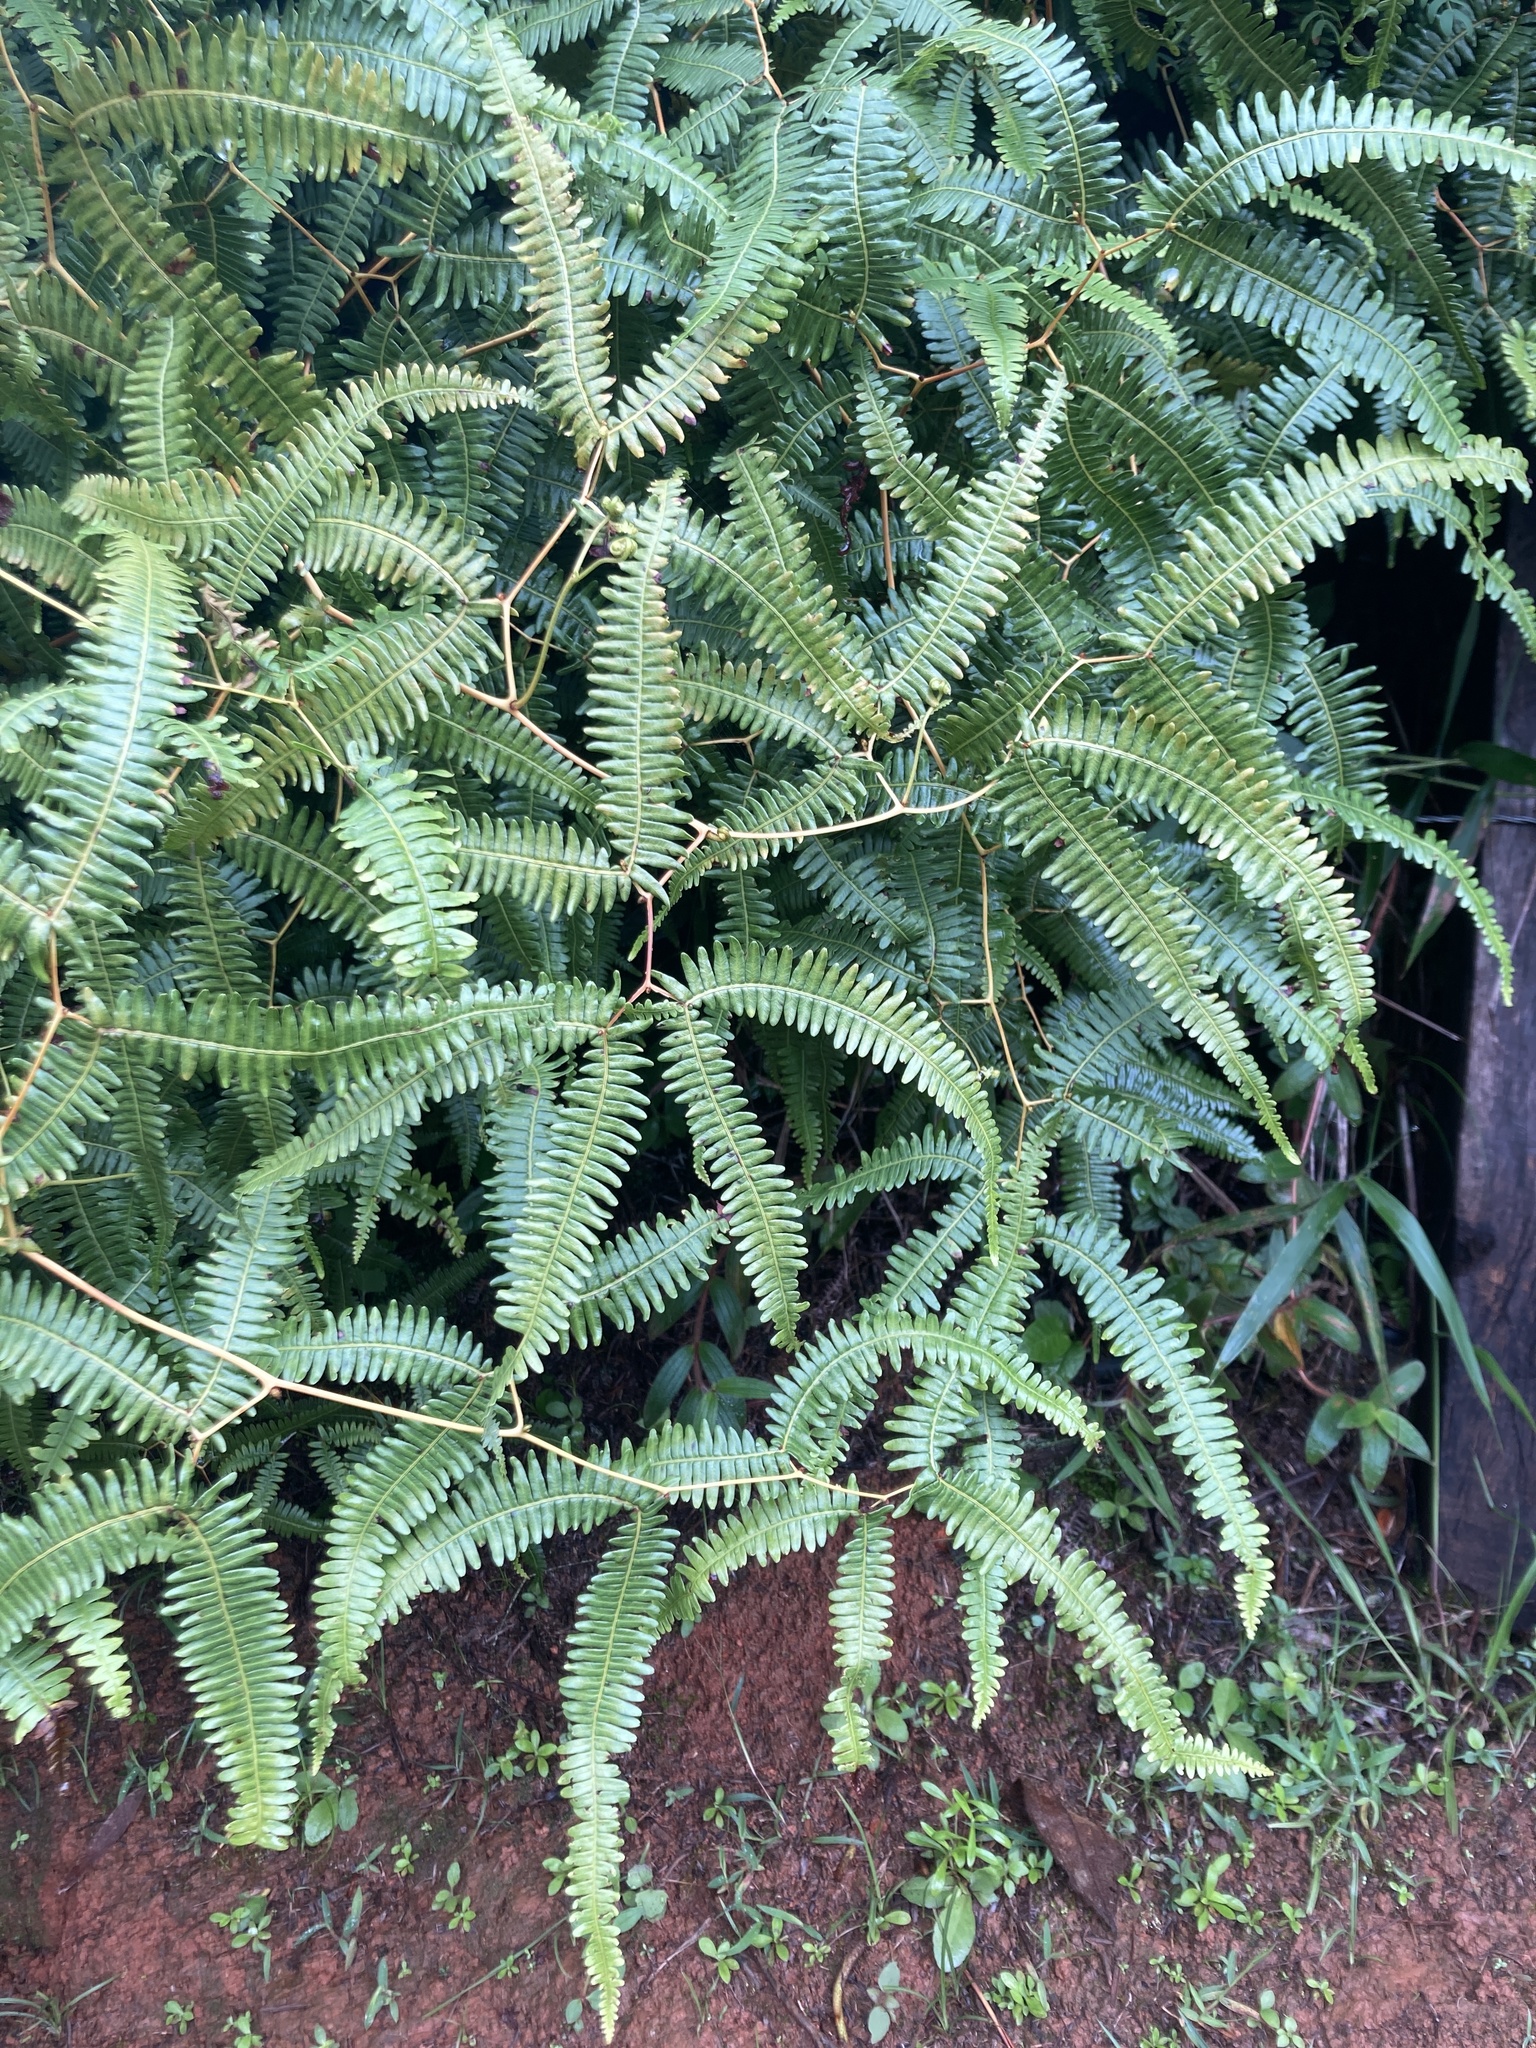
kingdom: Plantae
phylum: Tracheophyta
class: Polypodiopsida
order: Gleicheniales
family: Gleicheniaceae
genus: Gleichenella
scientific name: Gleichenella pectinata
